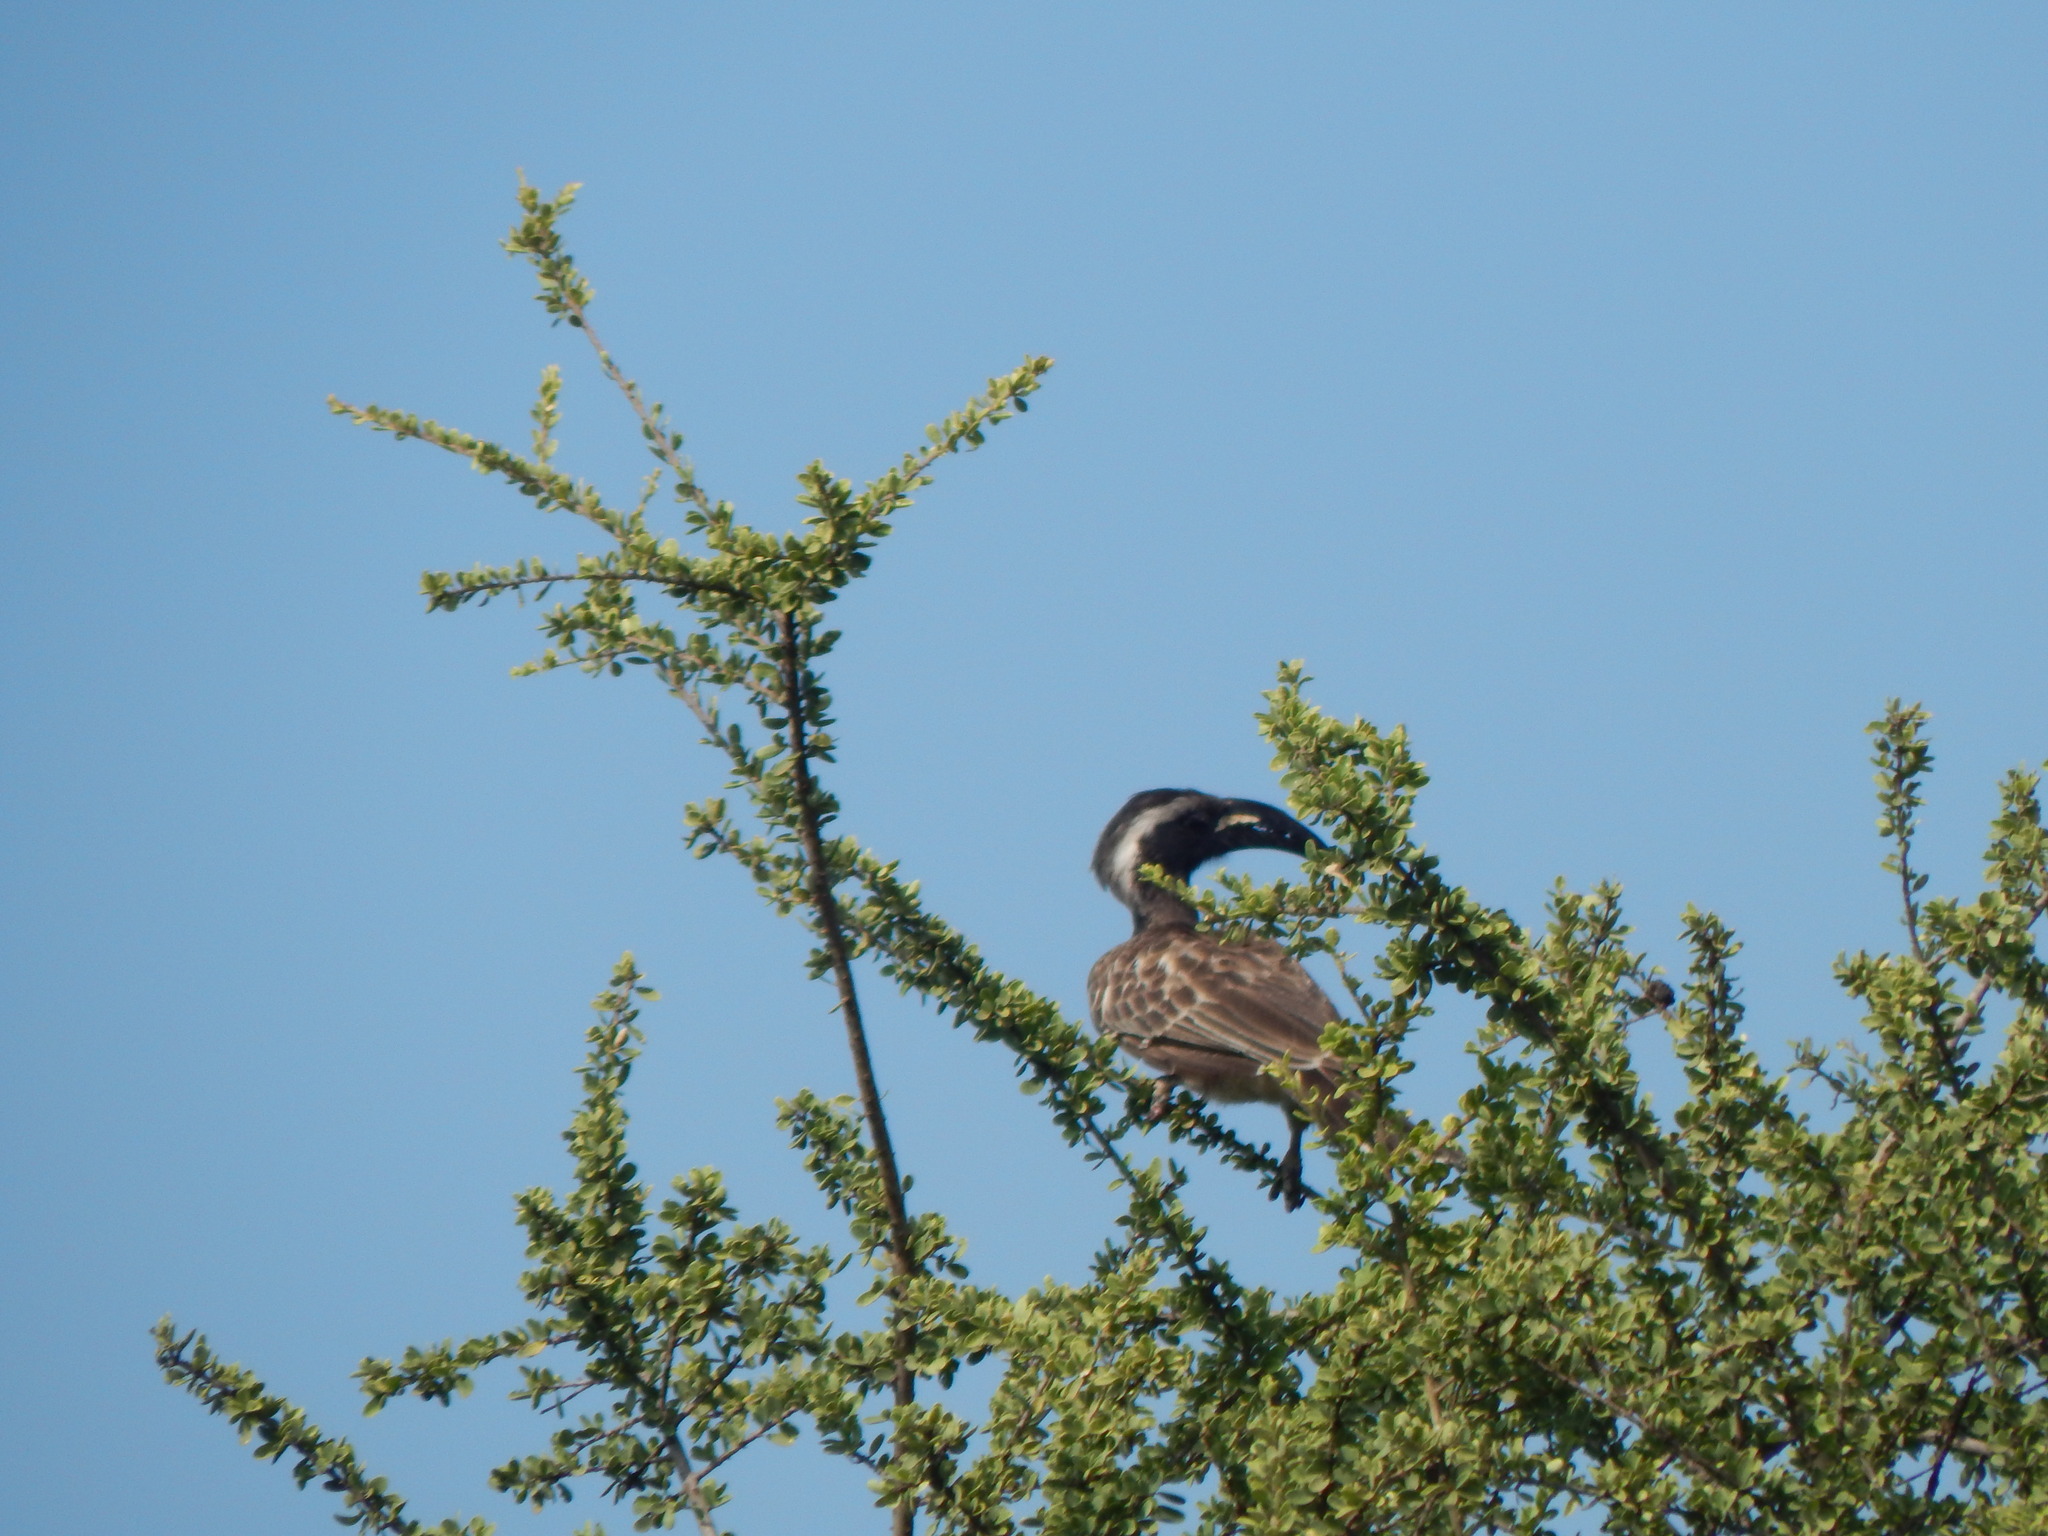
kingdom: Animalia
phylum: Chordata
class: Aves
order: Bucerotiformes
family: Bucerotidae
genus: Lophoceros
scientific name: Lophoceros nasutus
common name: African grey hornbill
